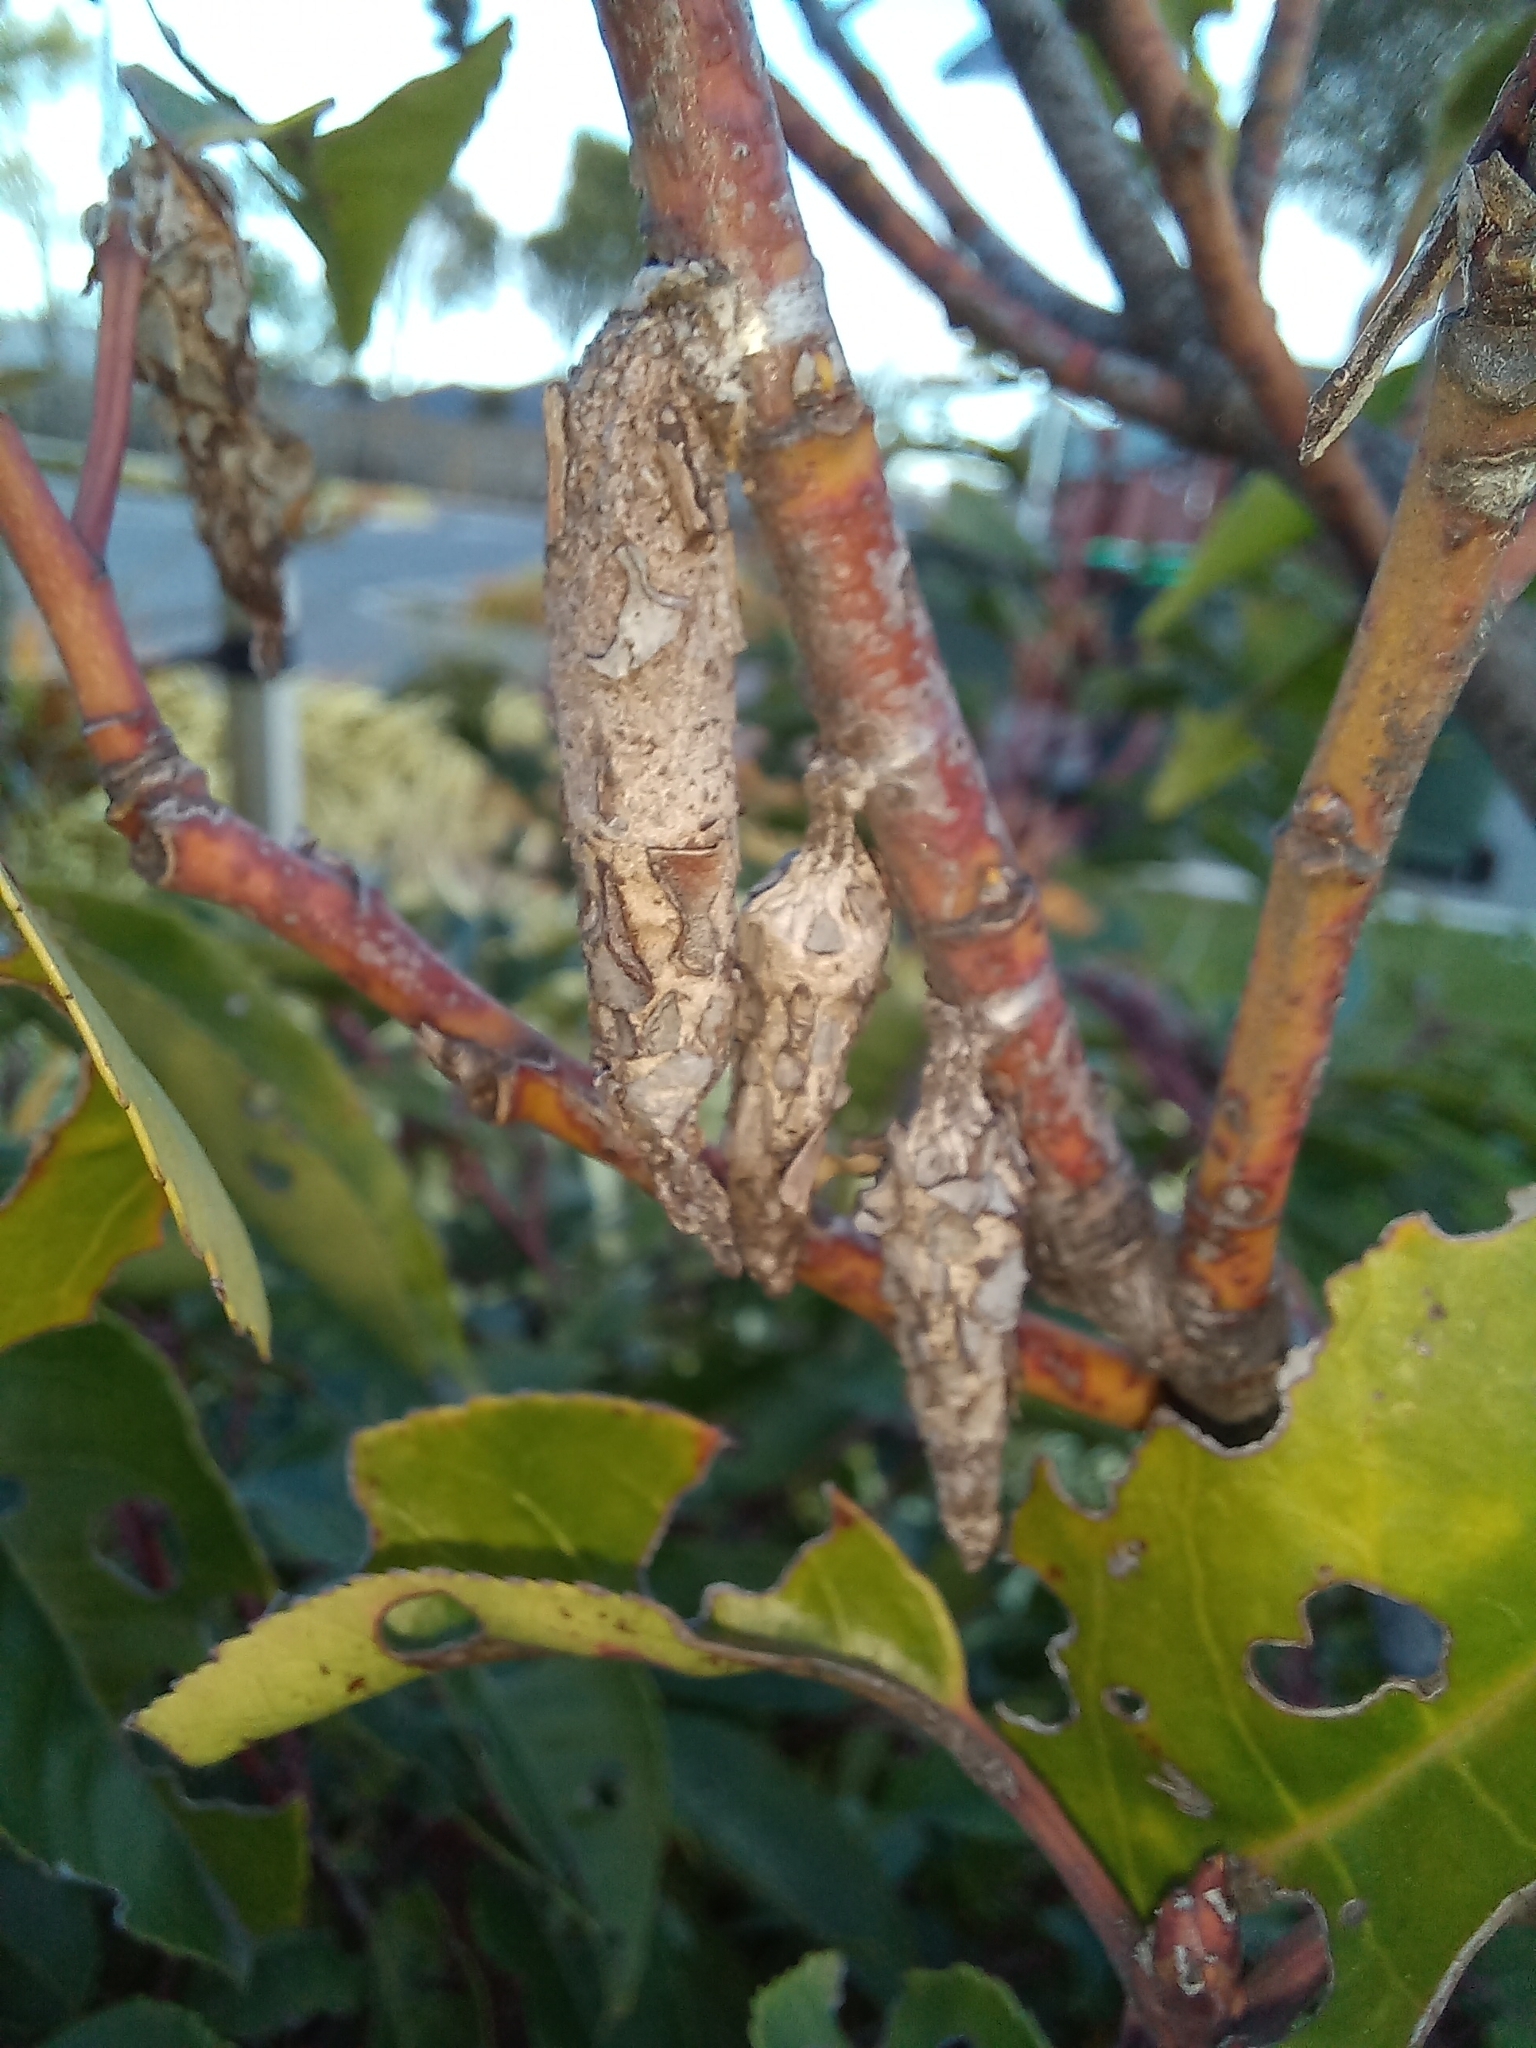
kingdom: Animalia
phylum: Arthropoda
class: Insecta
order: Lepidoptera
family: Psychidae
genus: Liothula
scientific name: Liothula omnivora
